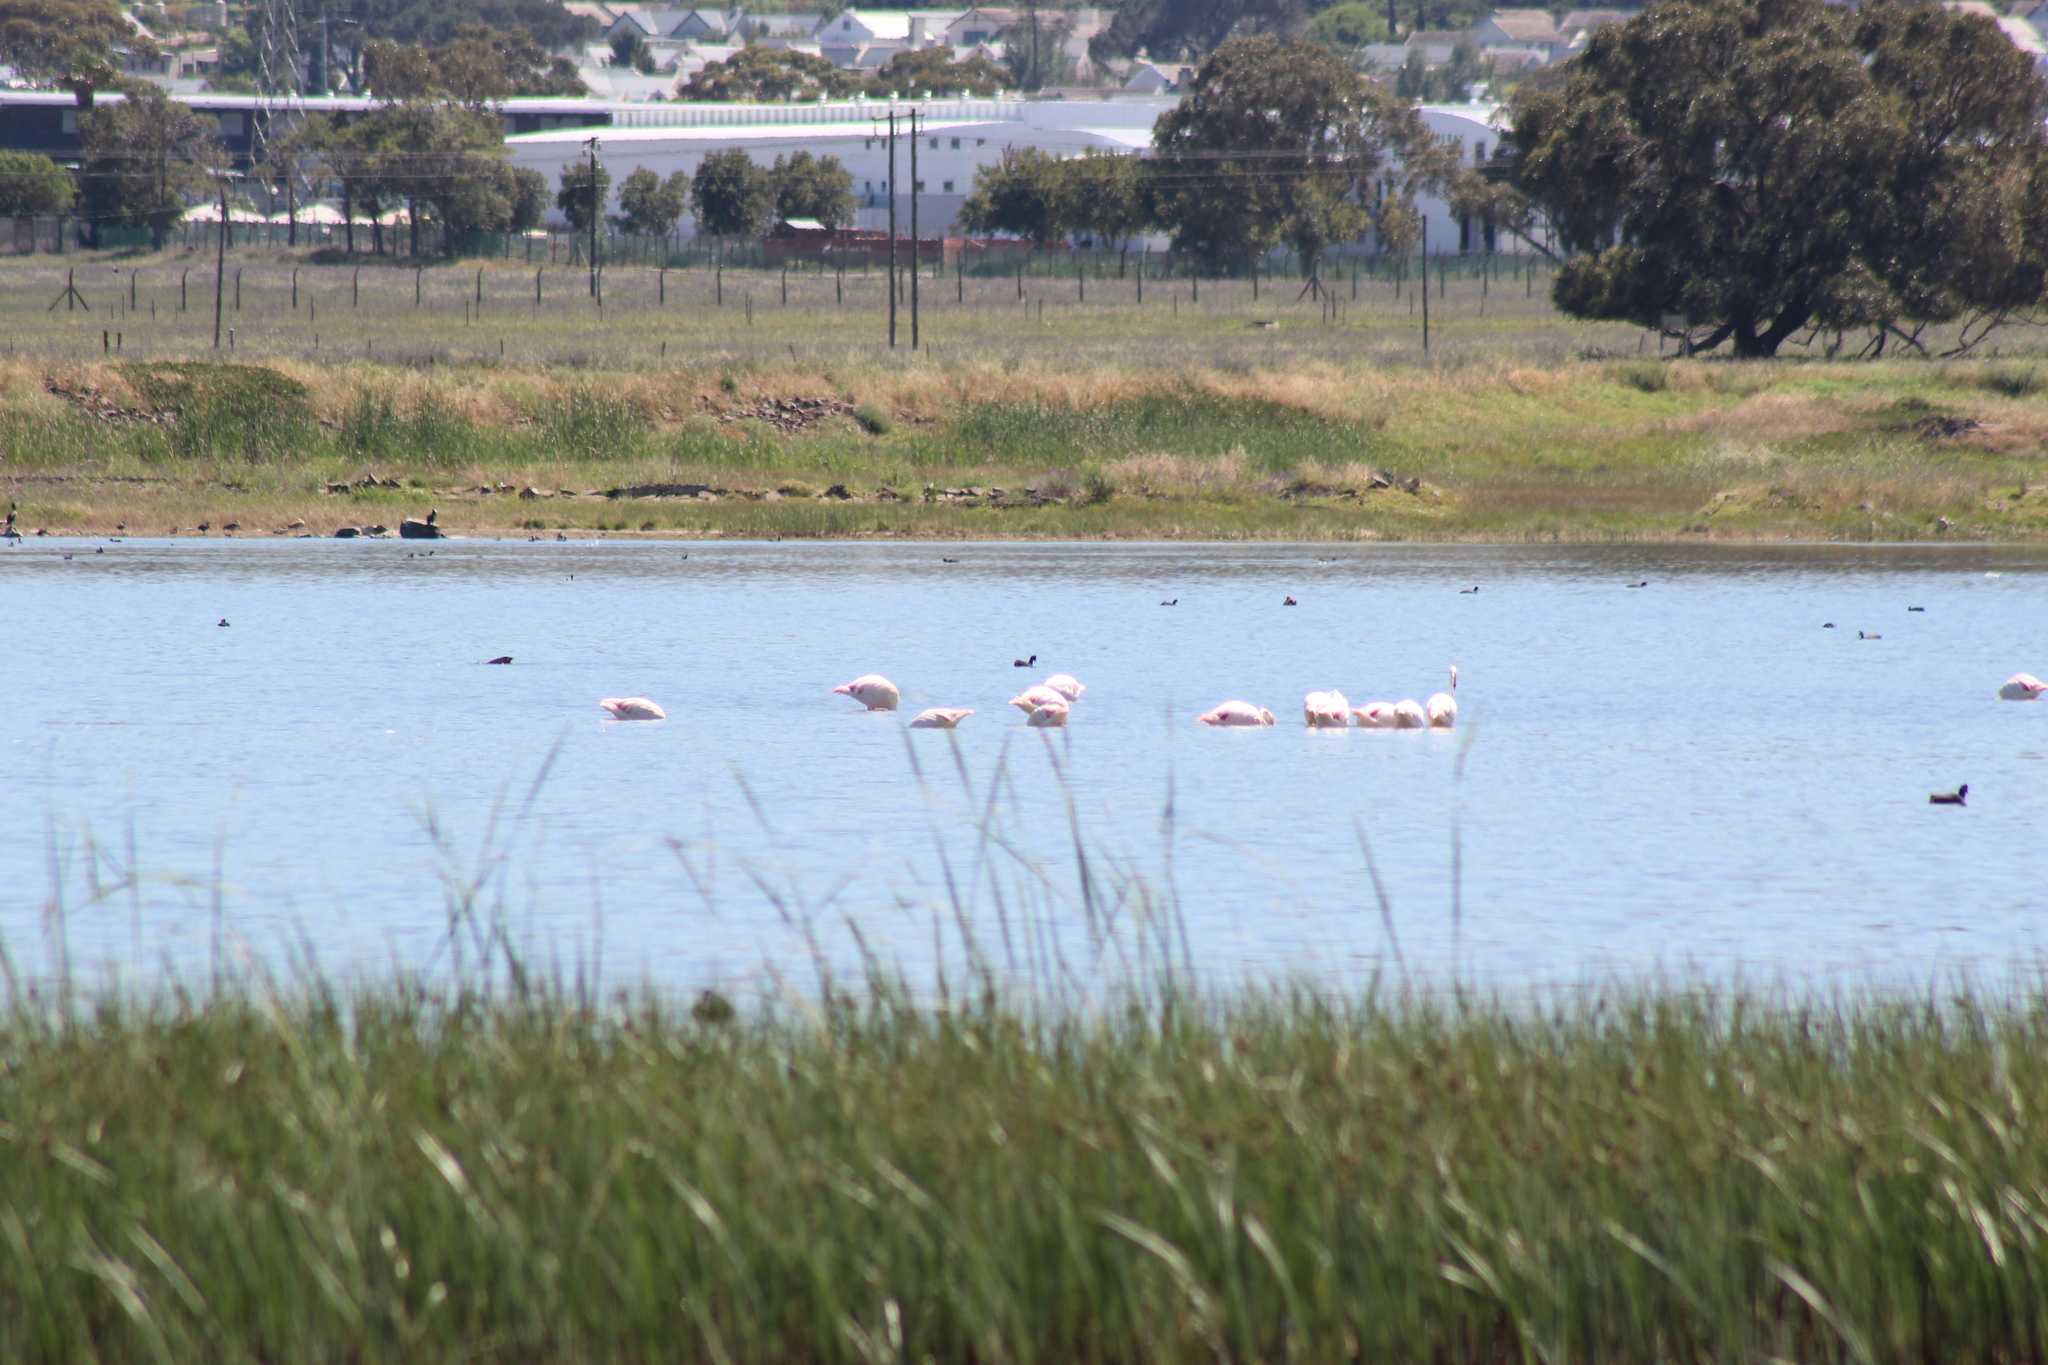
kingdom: Animalia
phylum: Chordata
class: Aves
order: Phoenicopteriformes
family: Phoenicopteridae
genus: Phoenicopterus
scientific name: Phoenicopterus roseus
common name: Greater flamingo
